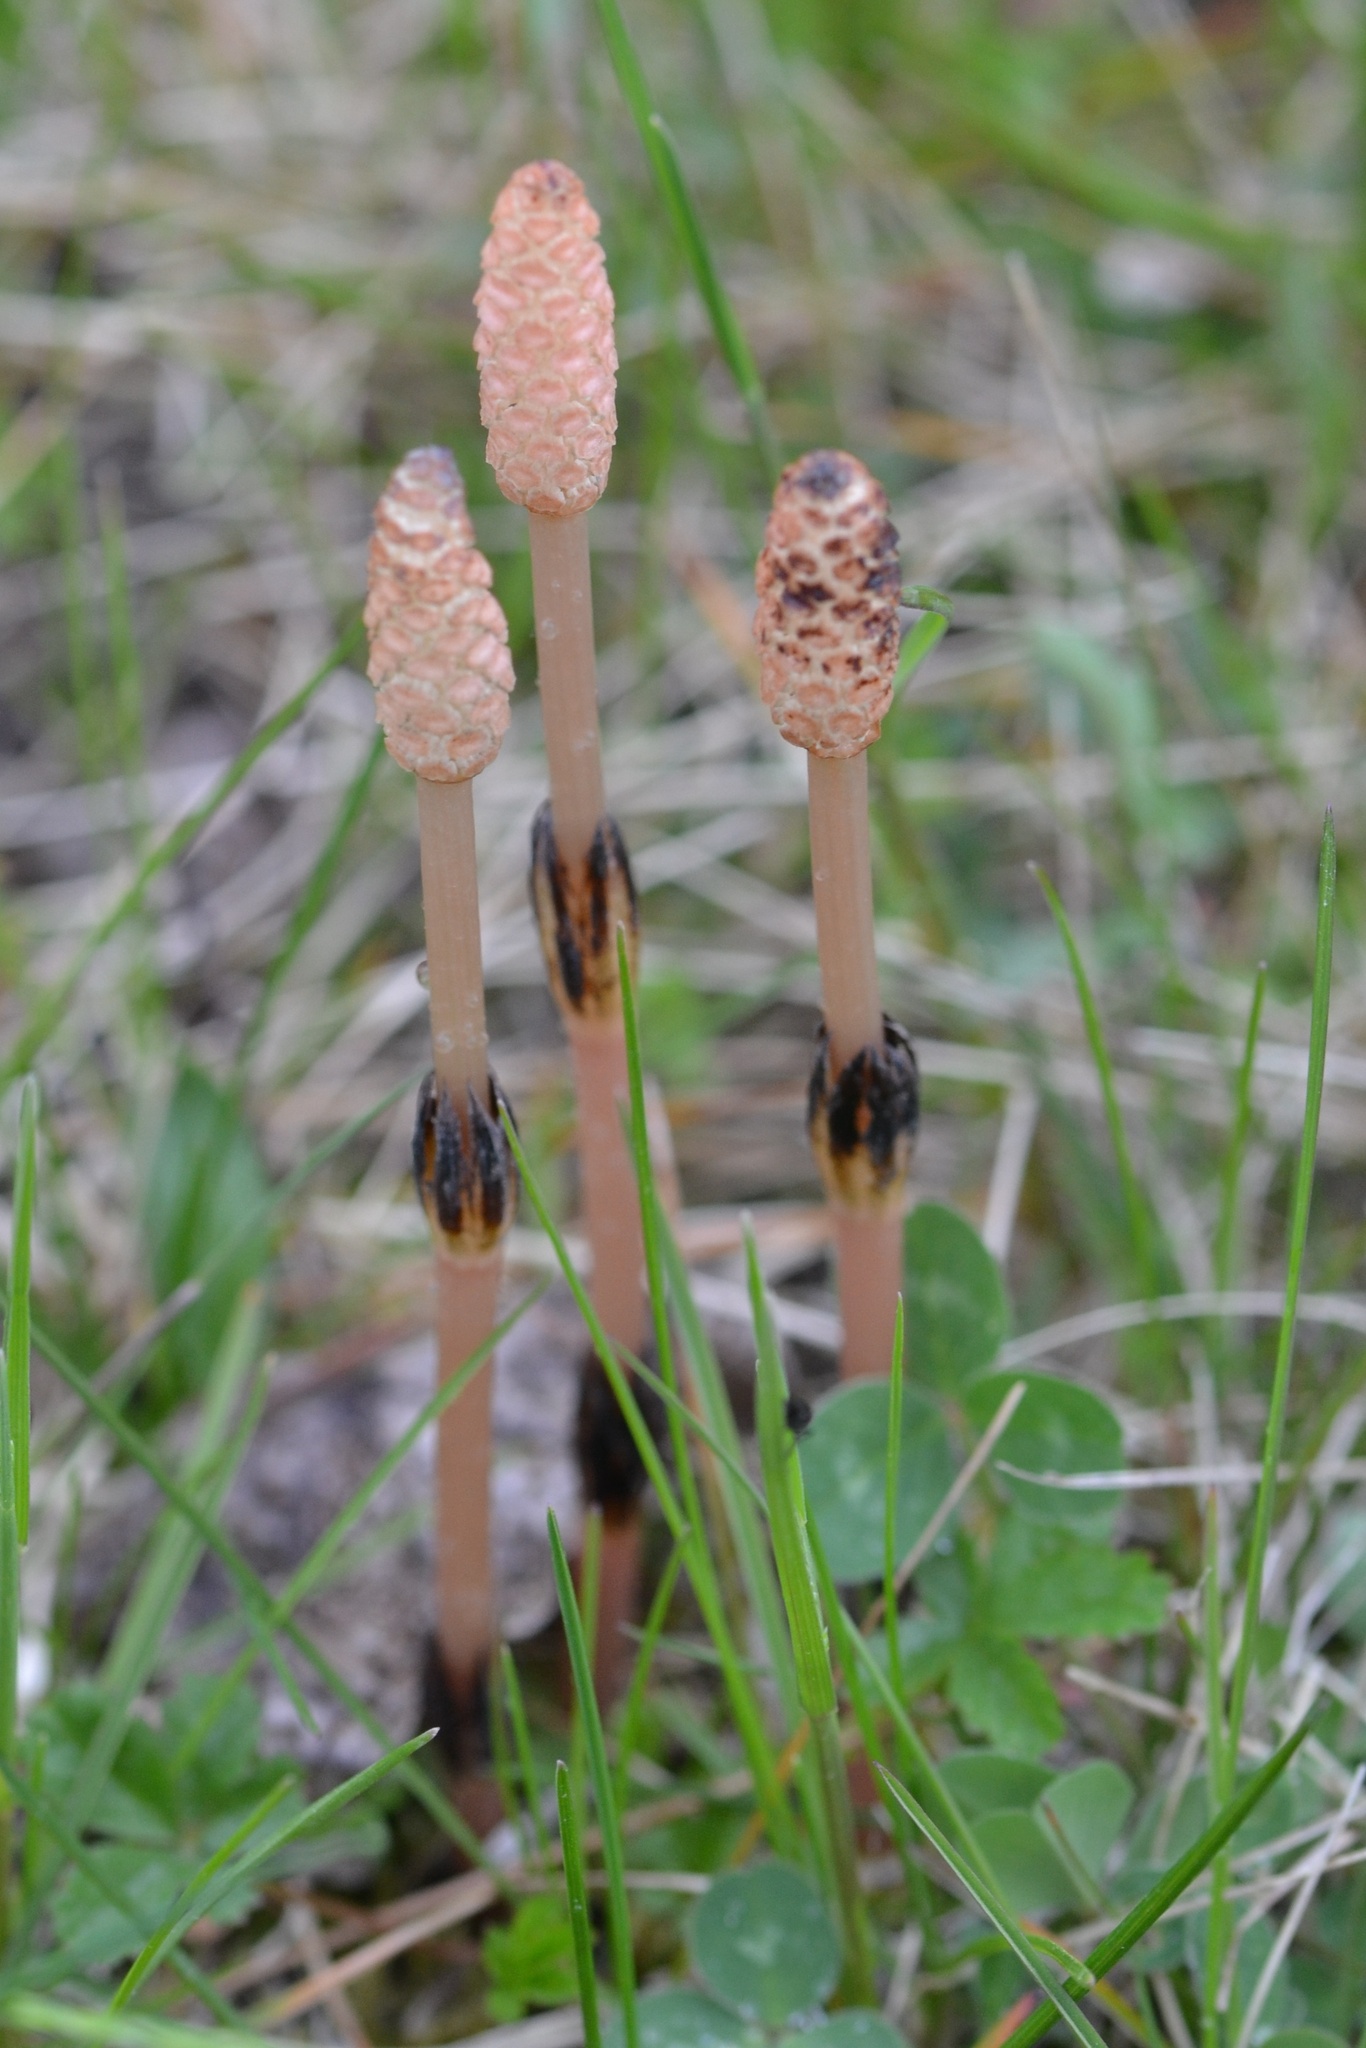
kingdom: Plantae
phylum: Tracheophyta
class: Polypodiopsida
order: Equisetales
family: Equisetaceae
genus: Equisetum
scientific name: Equisetum arvense
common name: Field horsetail
